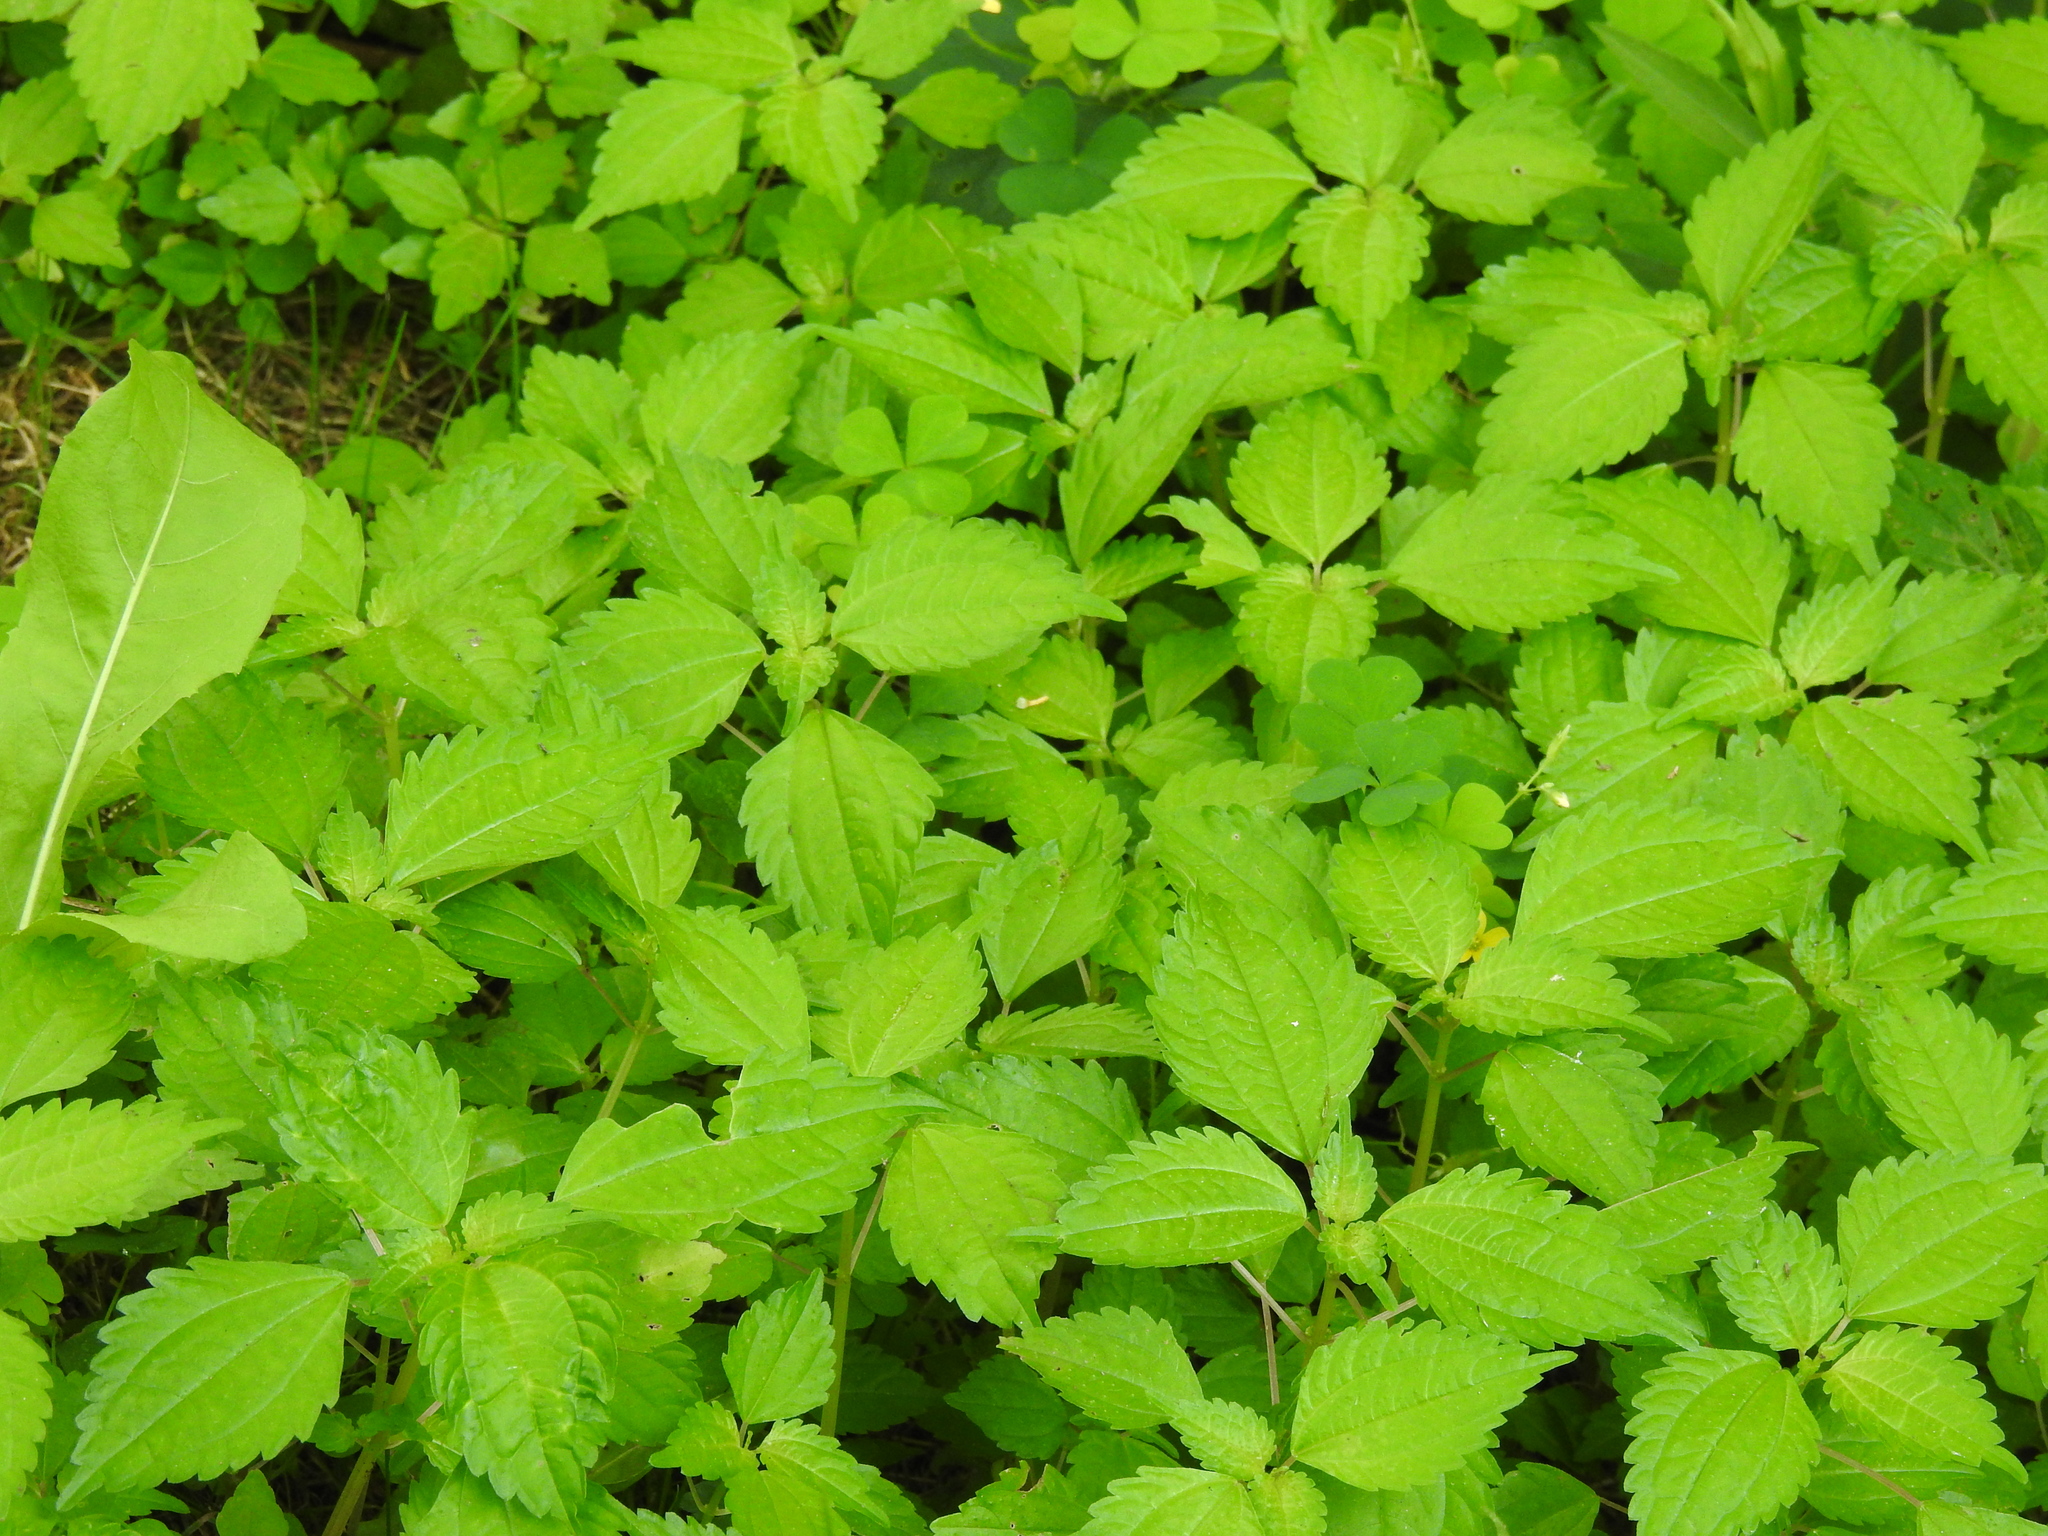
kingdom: Plantae
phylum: Tracheophyta
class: Magnoliopsida
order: Rosales
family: Urticaceae
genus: Pilea
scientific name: Pilea pumila
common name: Clearweed
